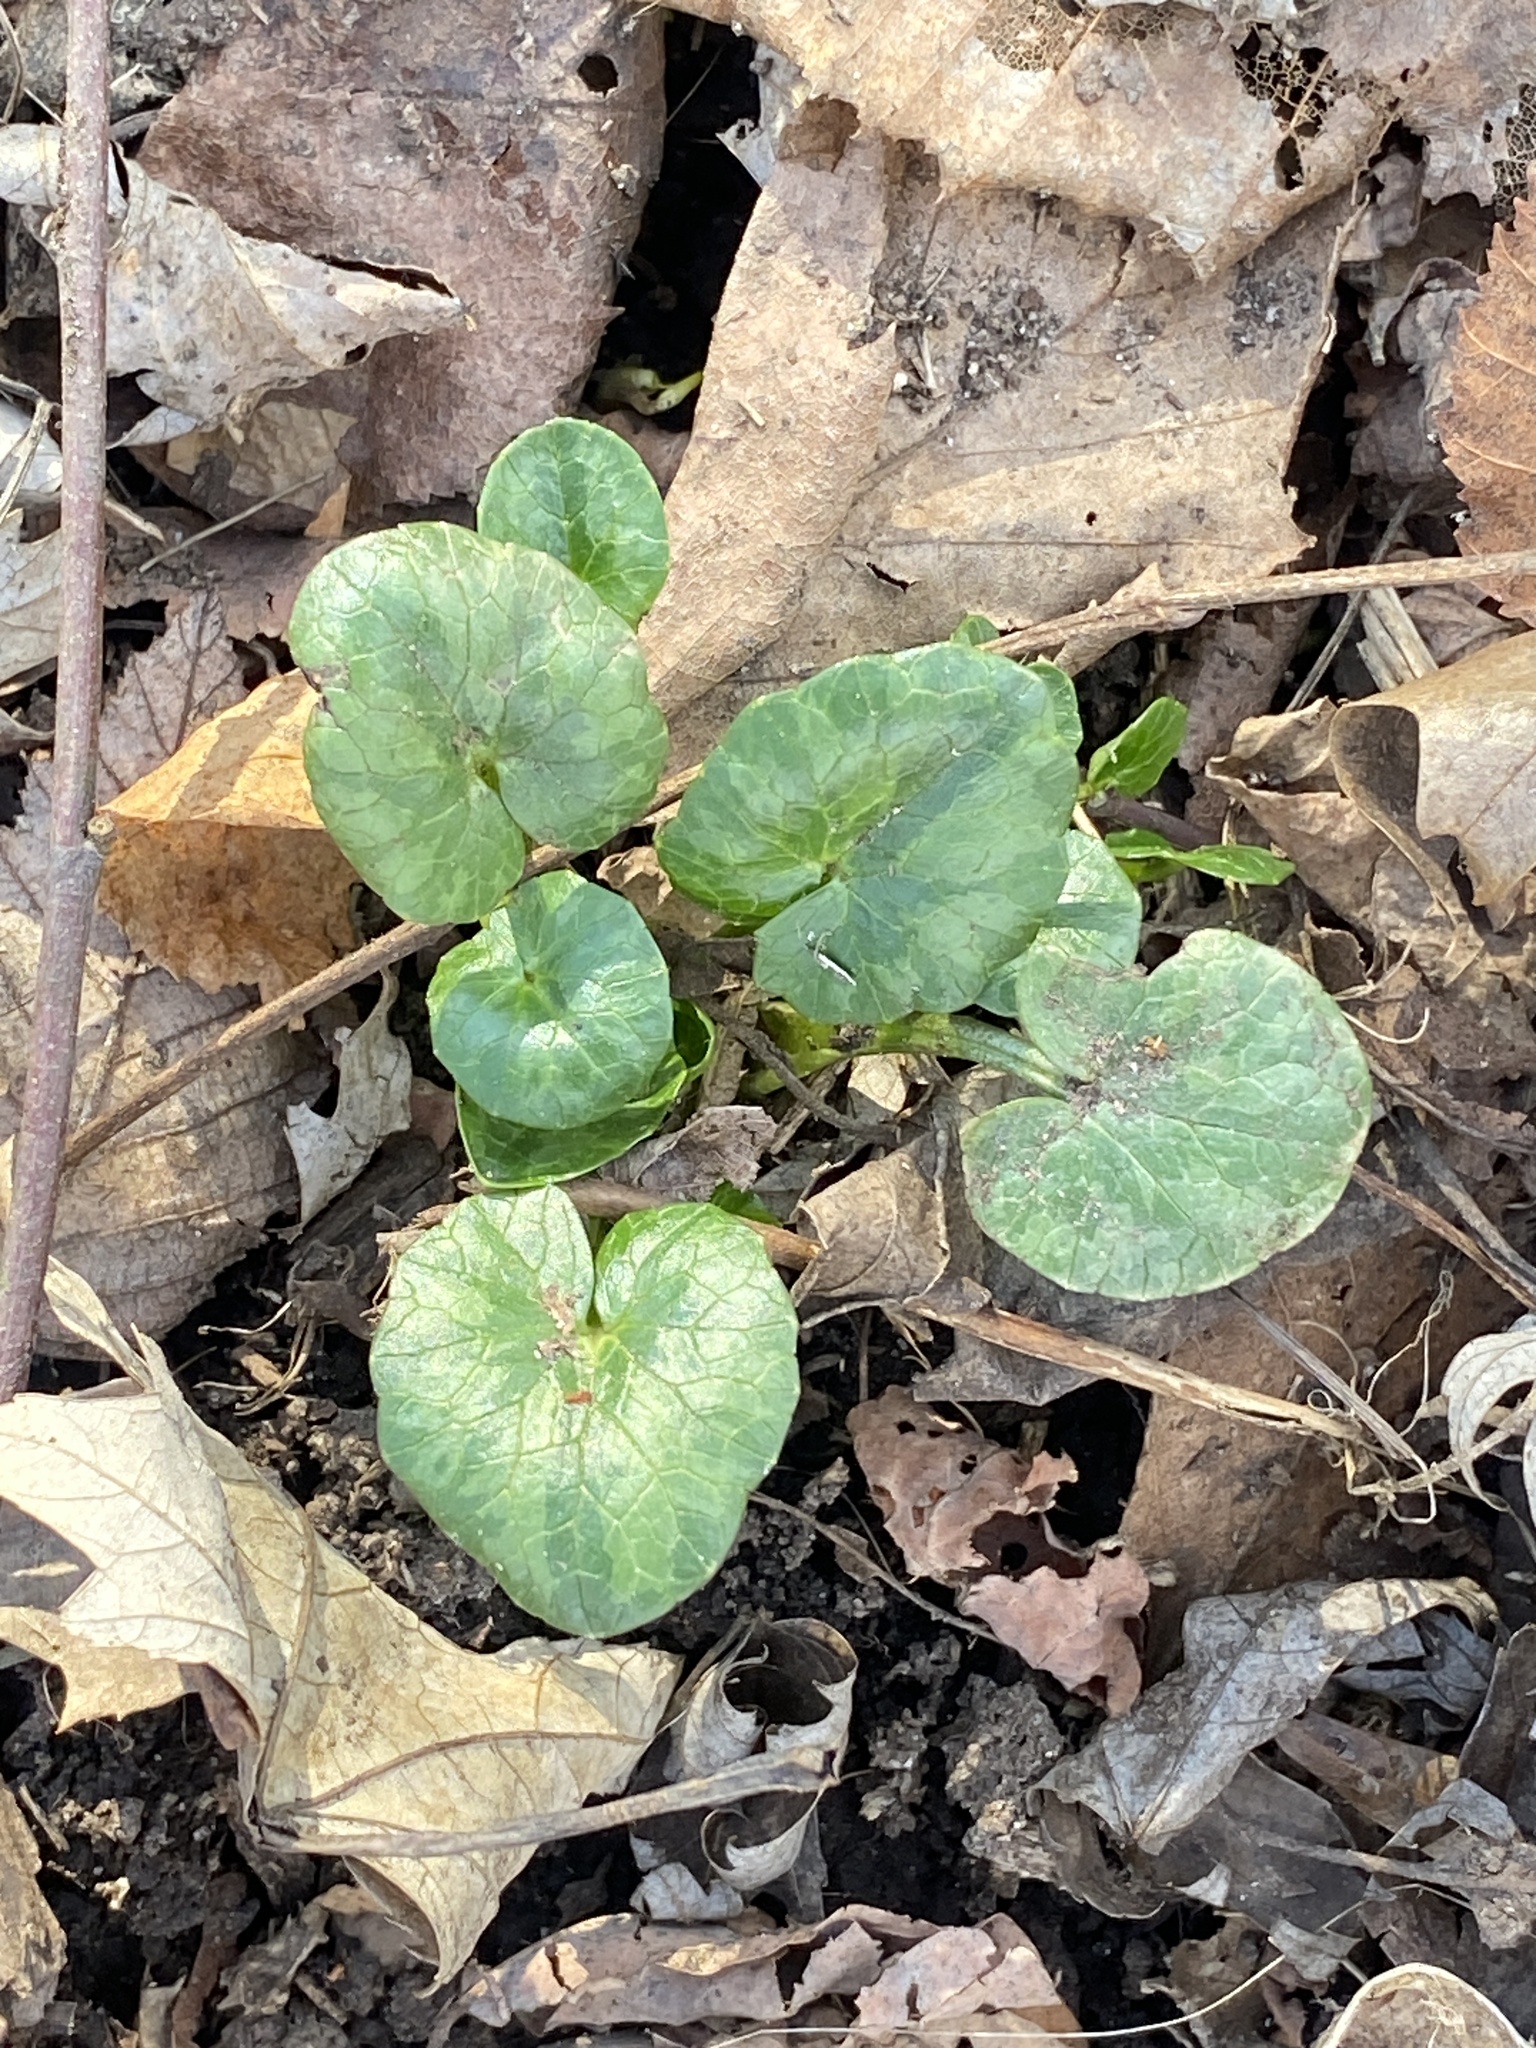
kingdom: Plantae
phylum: Tracheophyta
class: Magnoliopsida
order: Ranunculales
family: Ranunculaceae
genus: Ficaria
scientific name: Ficaria verna
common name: Lesser celandine
